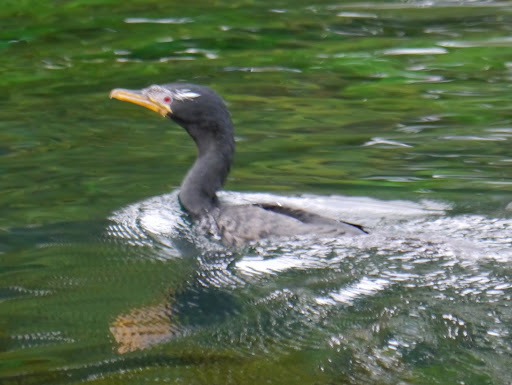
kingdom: Animalia
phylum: Chordata
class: Aves
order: Suliformes
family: Phalacrocoracidae
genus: Microcarbo
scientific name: Microcarbo africanus
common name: Long-tailed cormorant
